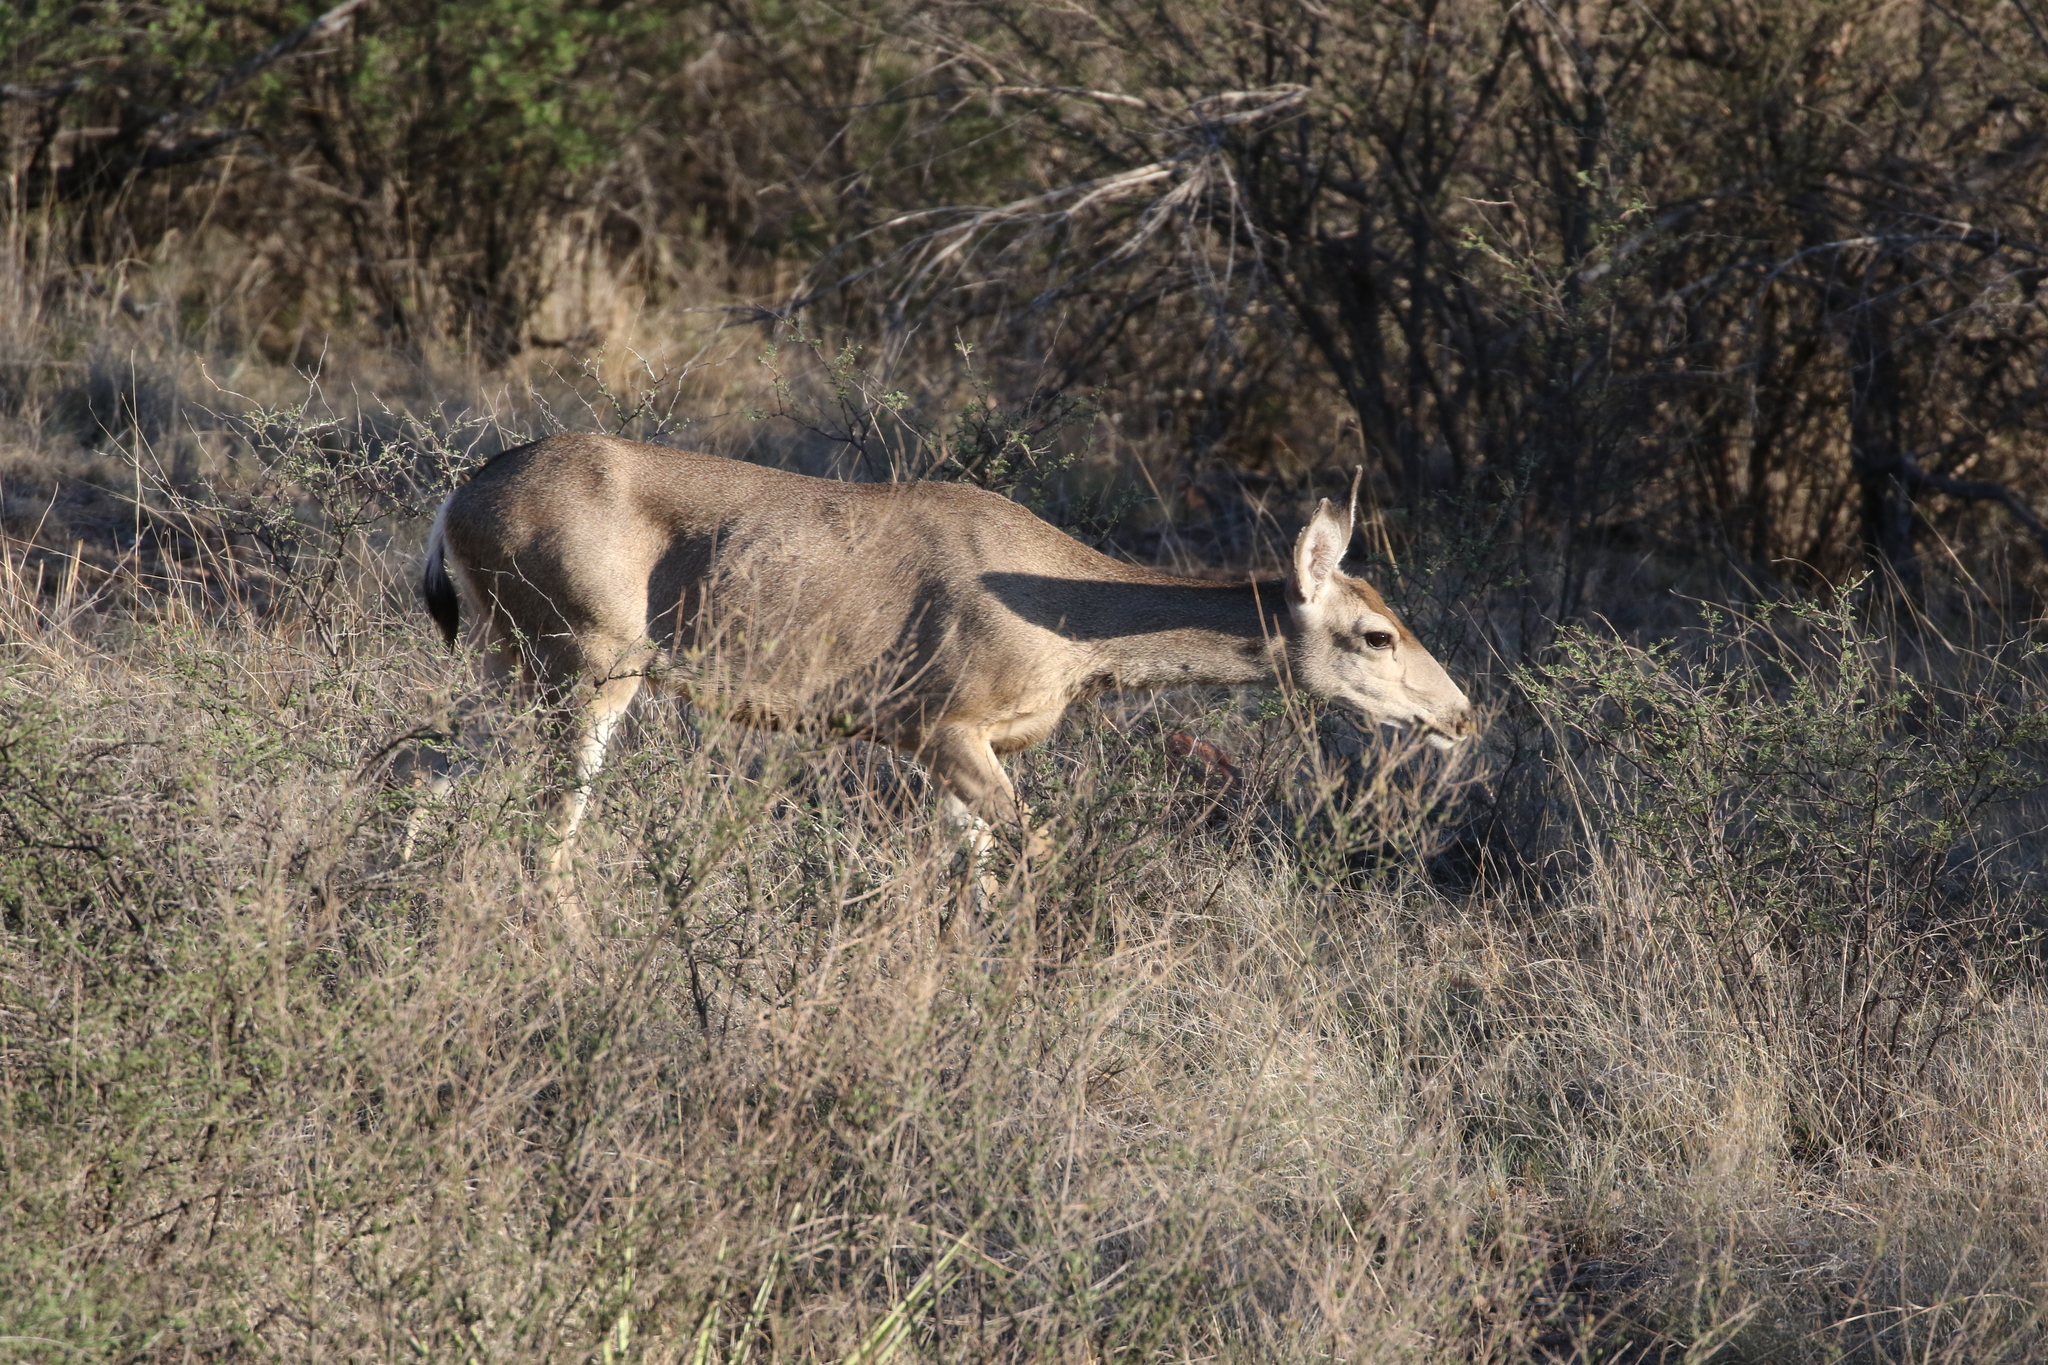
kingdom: Animalia
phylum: Chordata
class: Mammalia
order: Artiodactyla
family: Cervidae
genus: Odocoileus
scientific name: Odocoileus hemionus
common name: Mule deer
